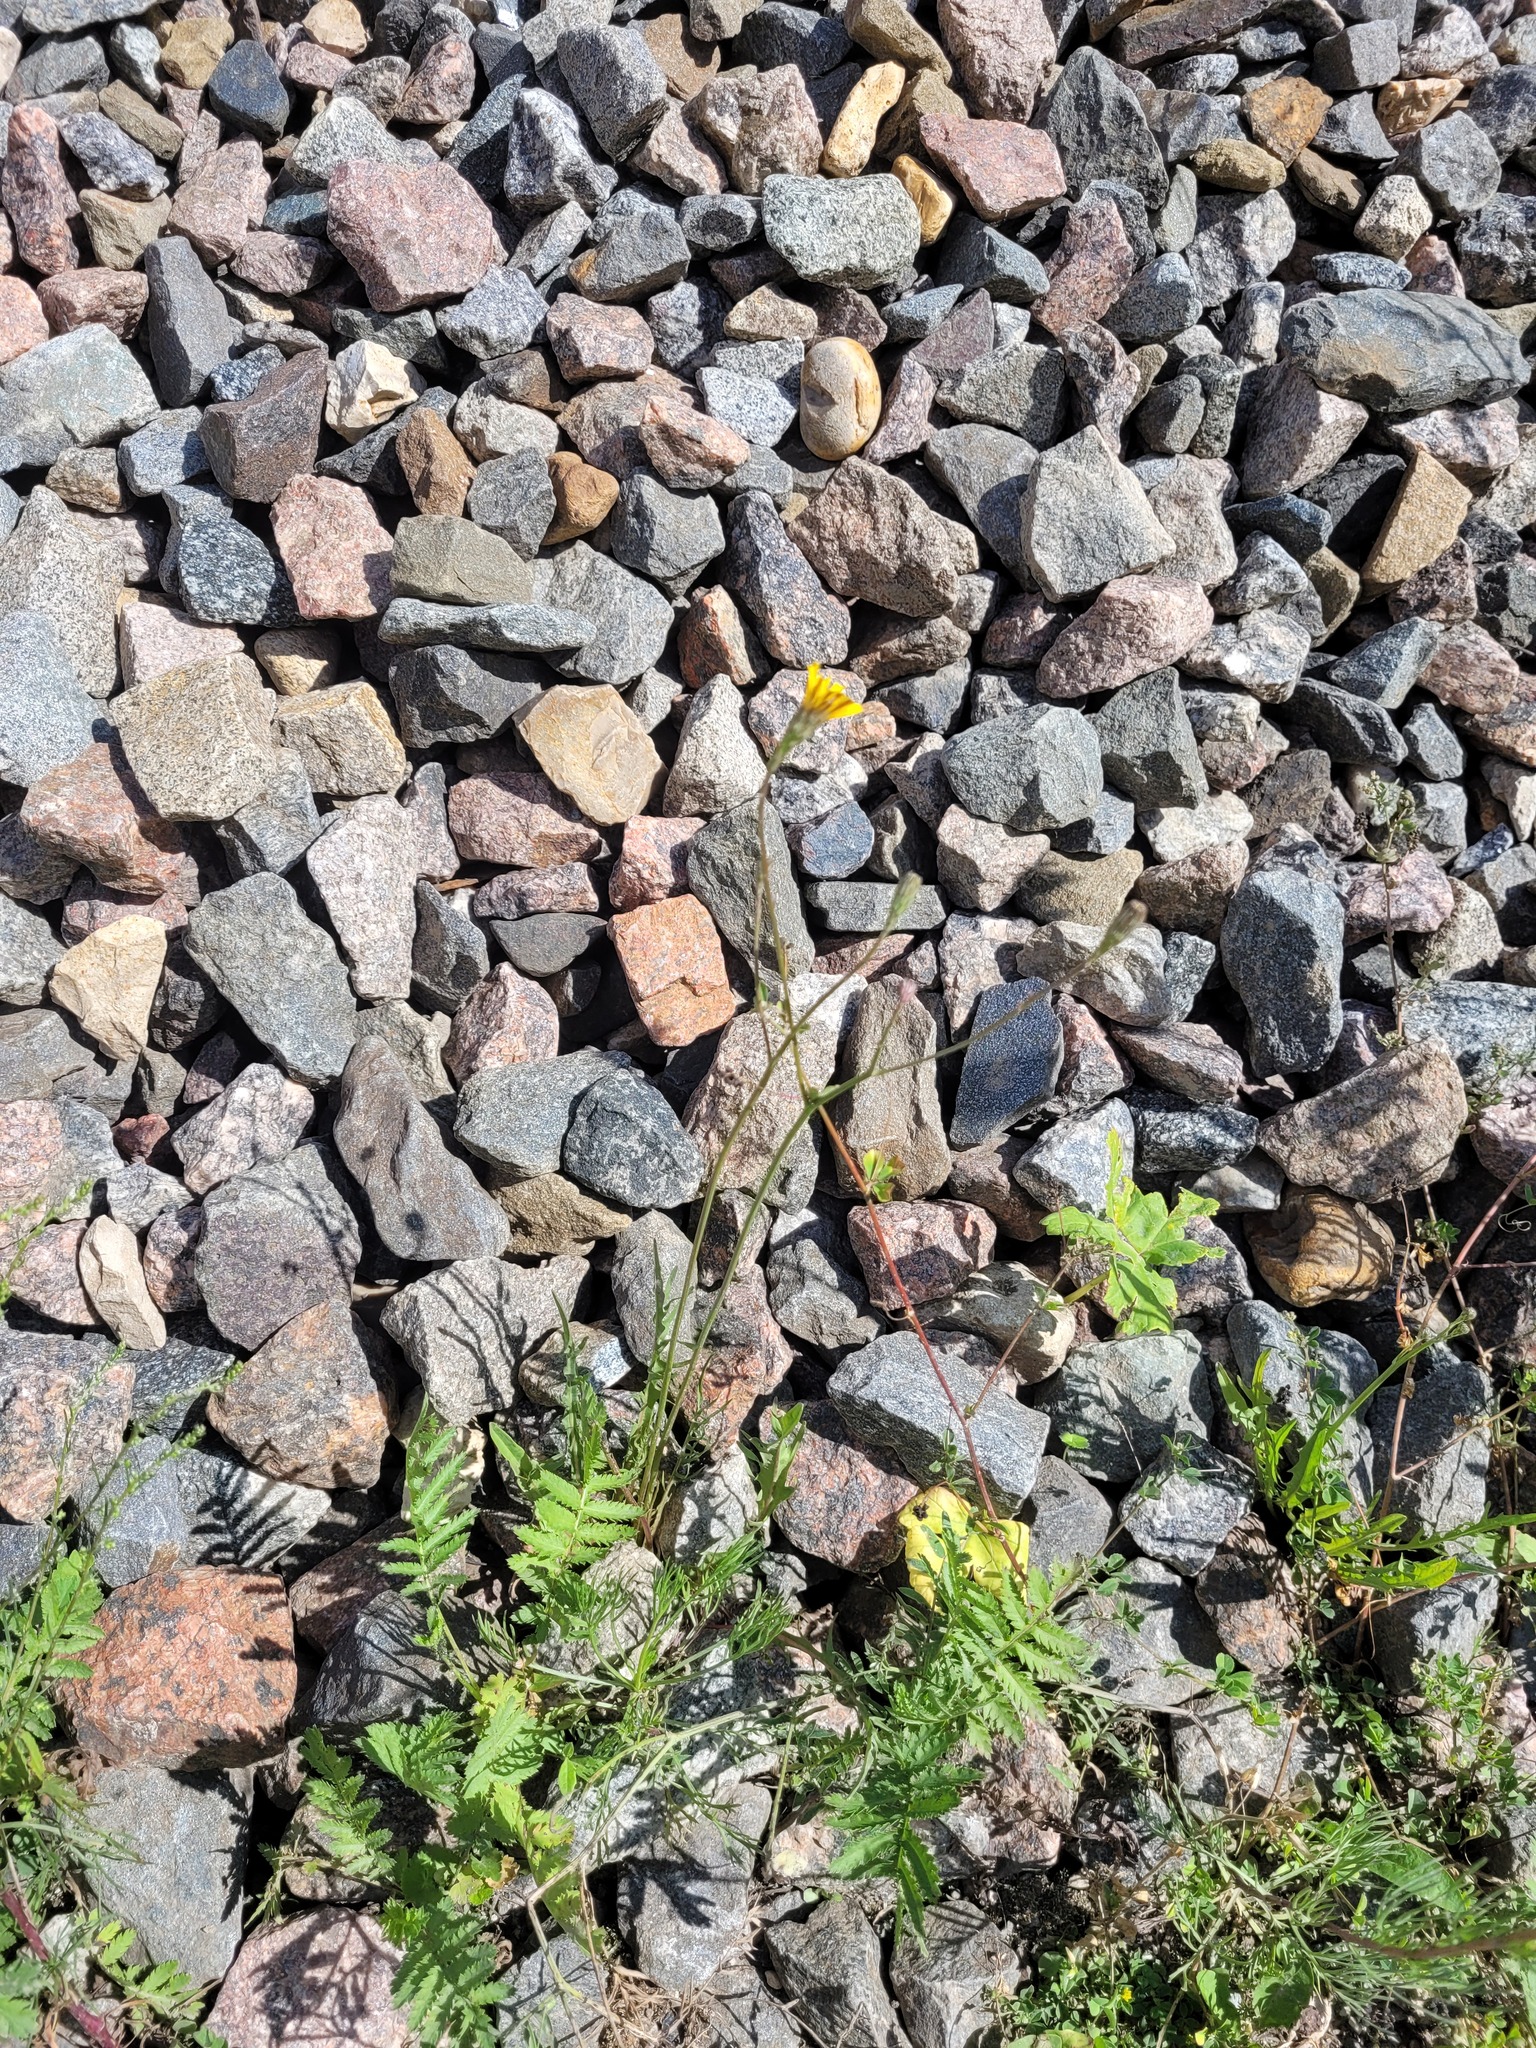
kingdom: Plantae
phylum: Tracheophyta
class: Magnoliopsida
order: Asterales
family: Asteraceae
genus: Scorzoneroides
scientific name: Scorzoneroides autumnalis
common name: Autumn hawkbit
